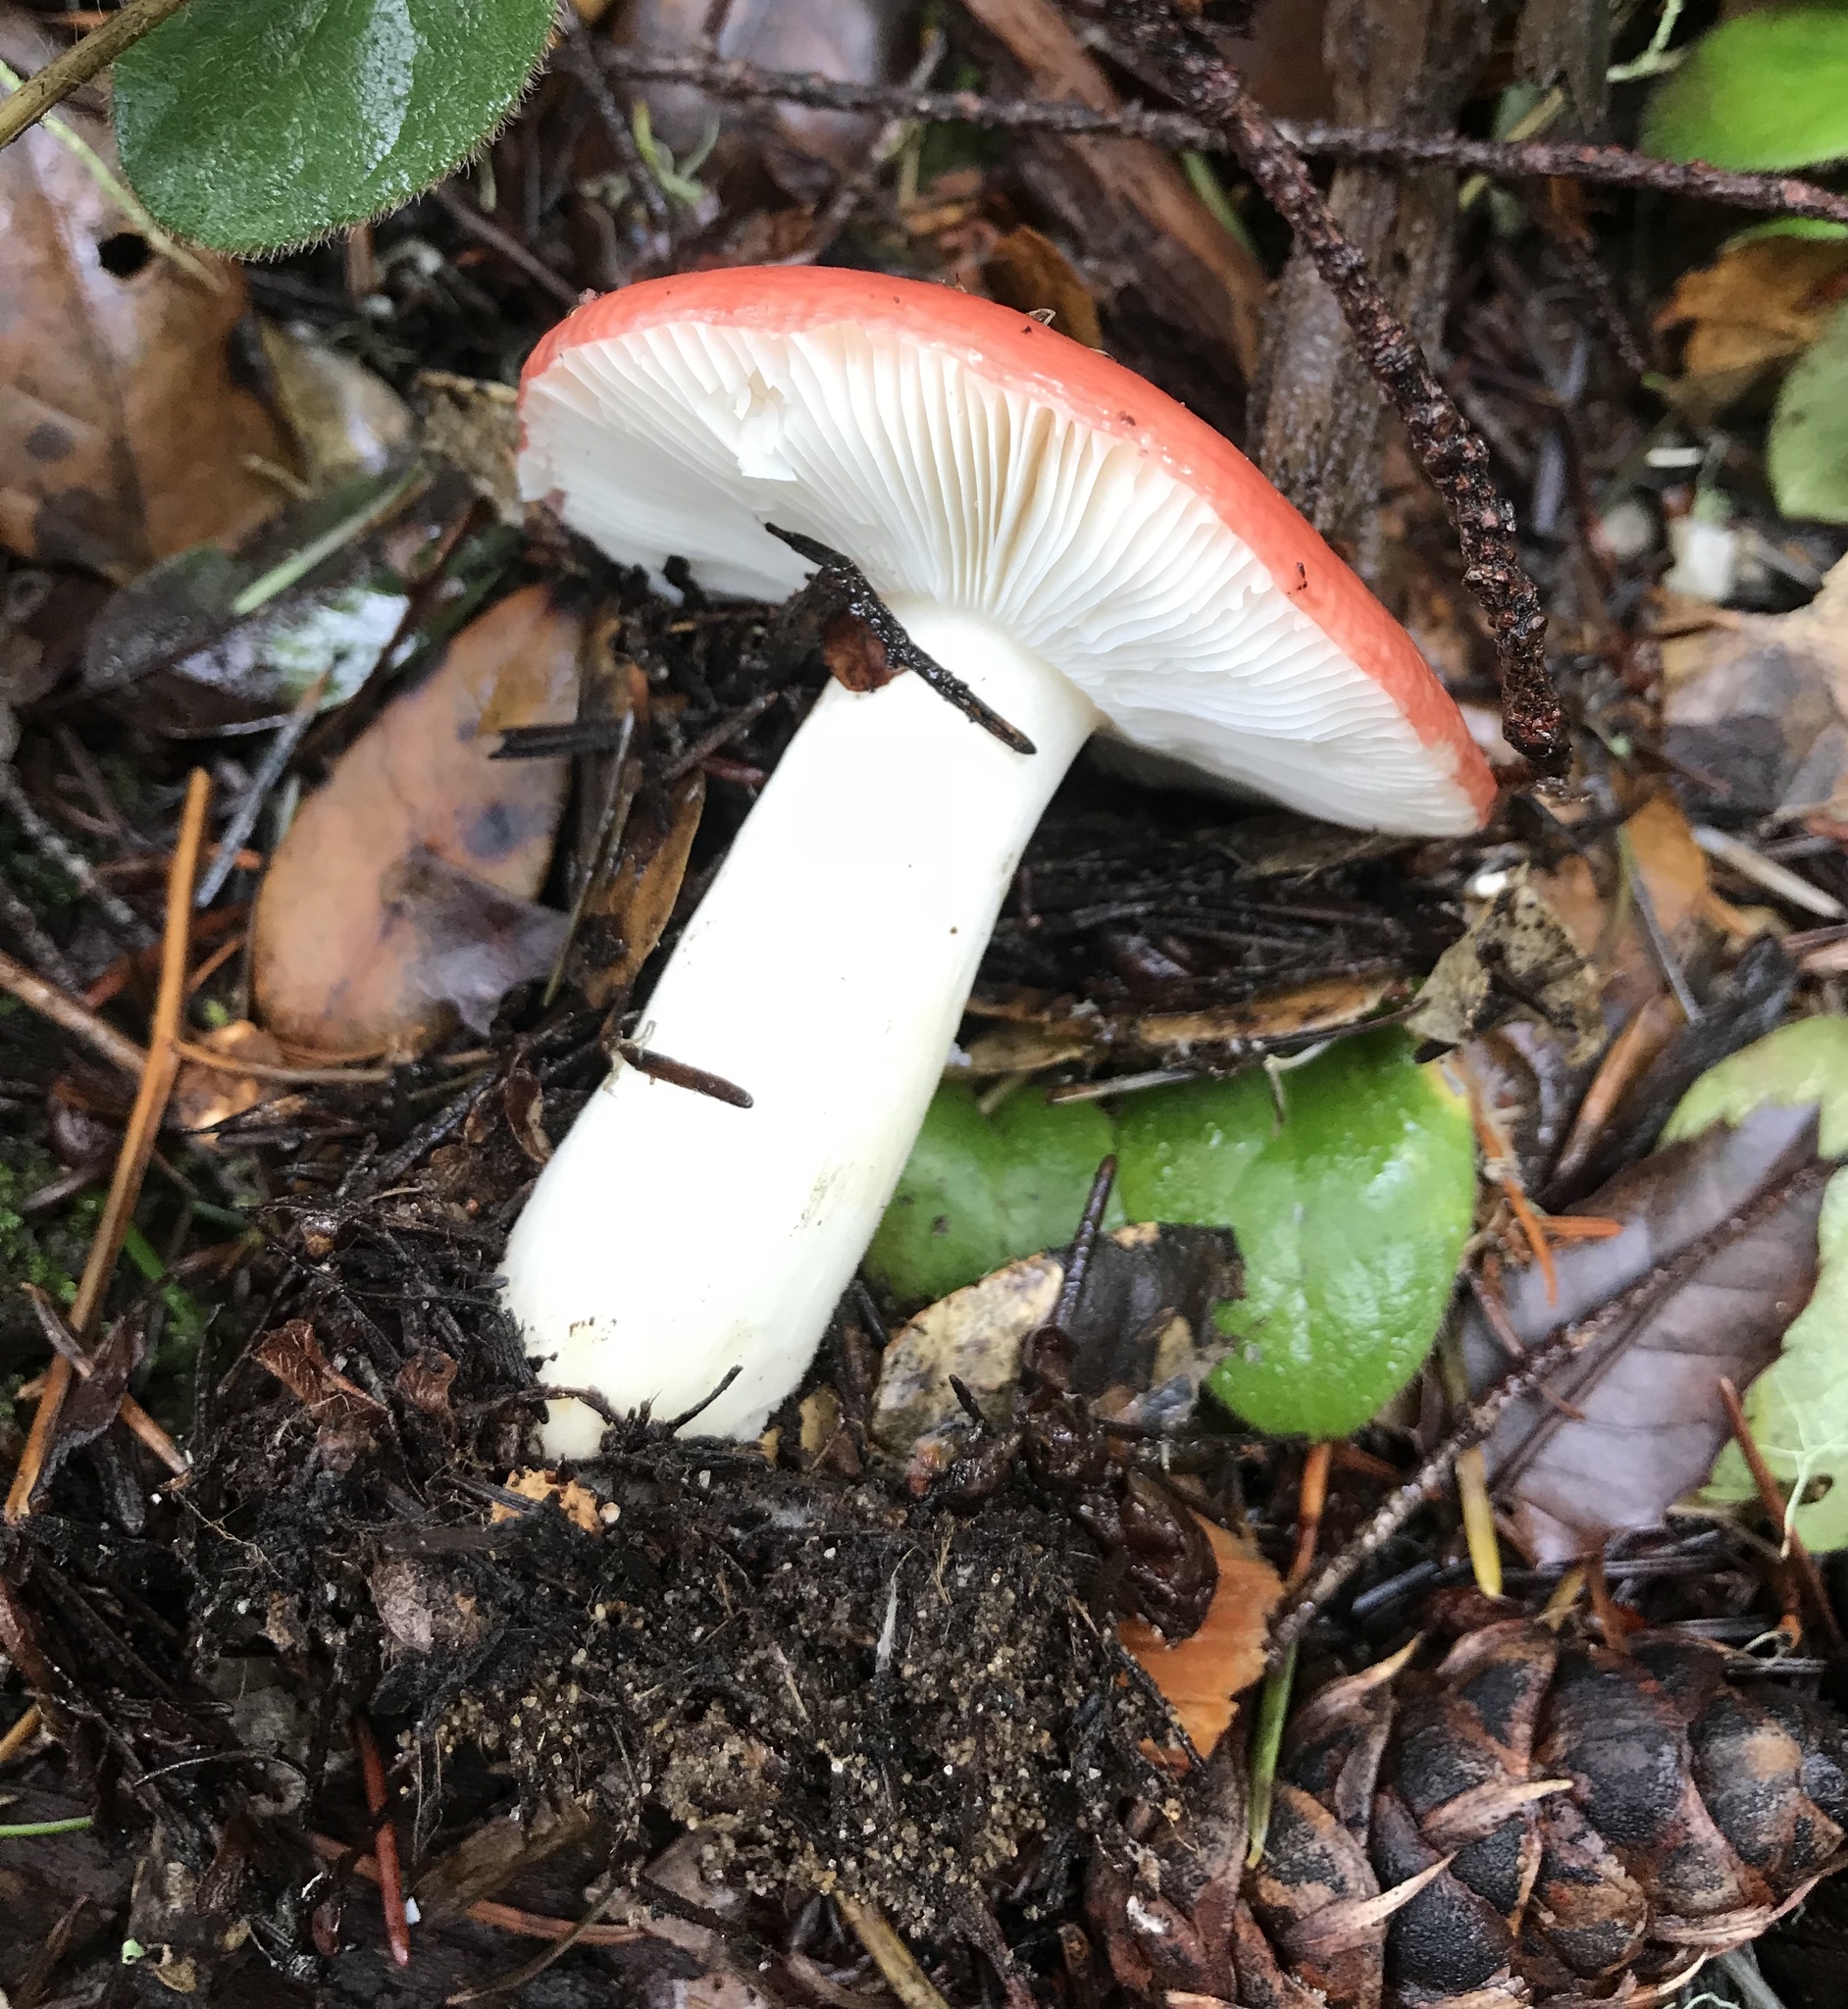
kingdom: Fungi
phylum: Basidiomycota
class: Agaricomycetes
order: Russulales
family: Russulaceae
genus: Russula
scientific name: Russula cremoricolor
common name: Winter russula
